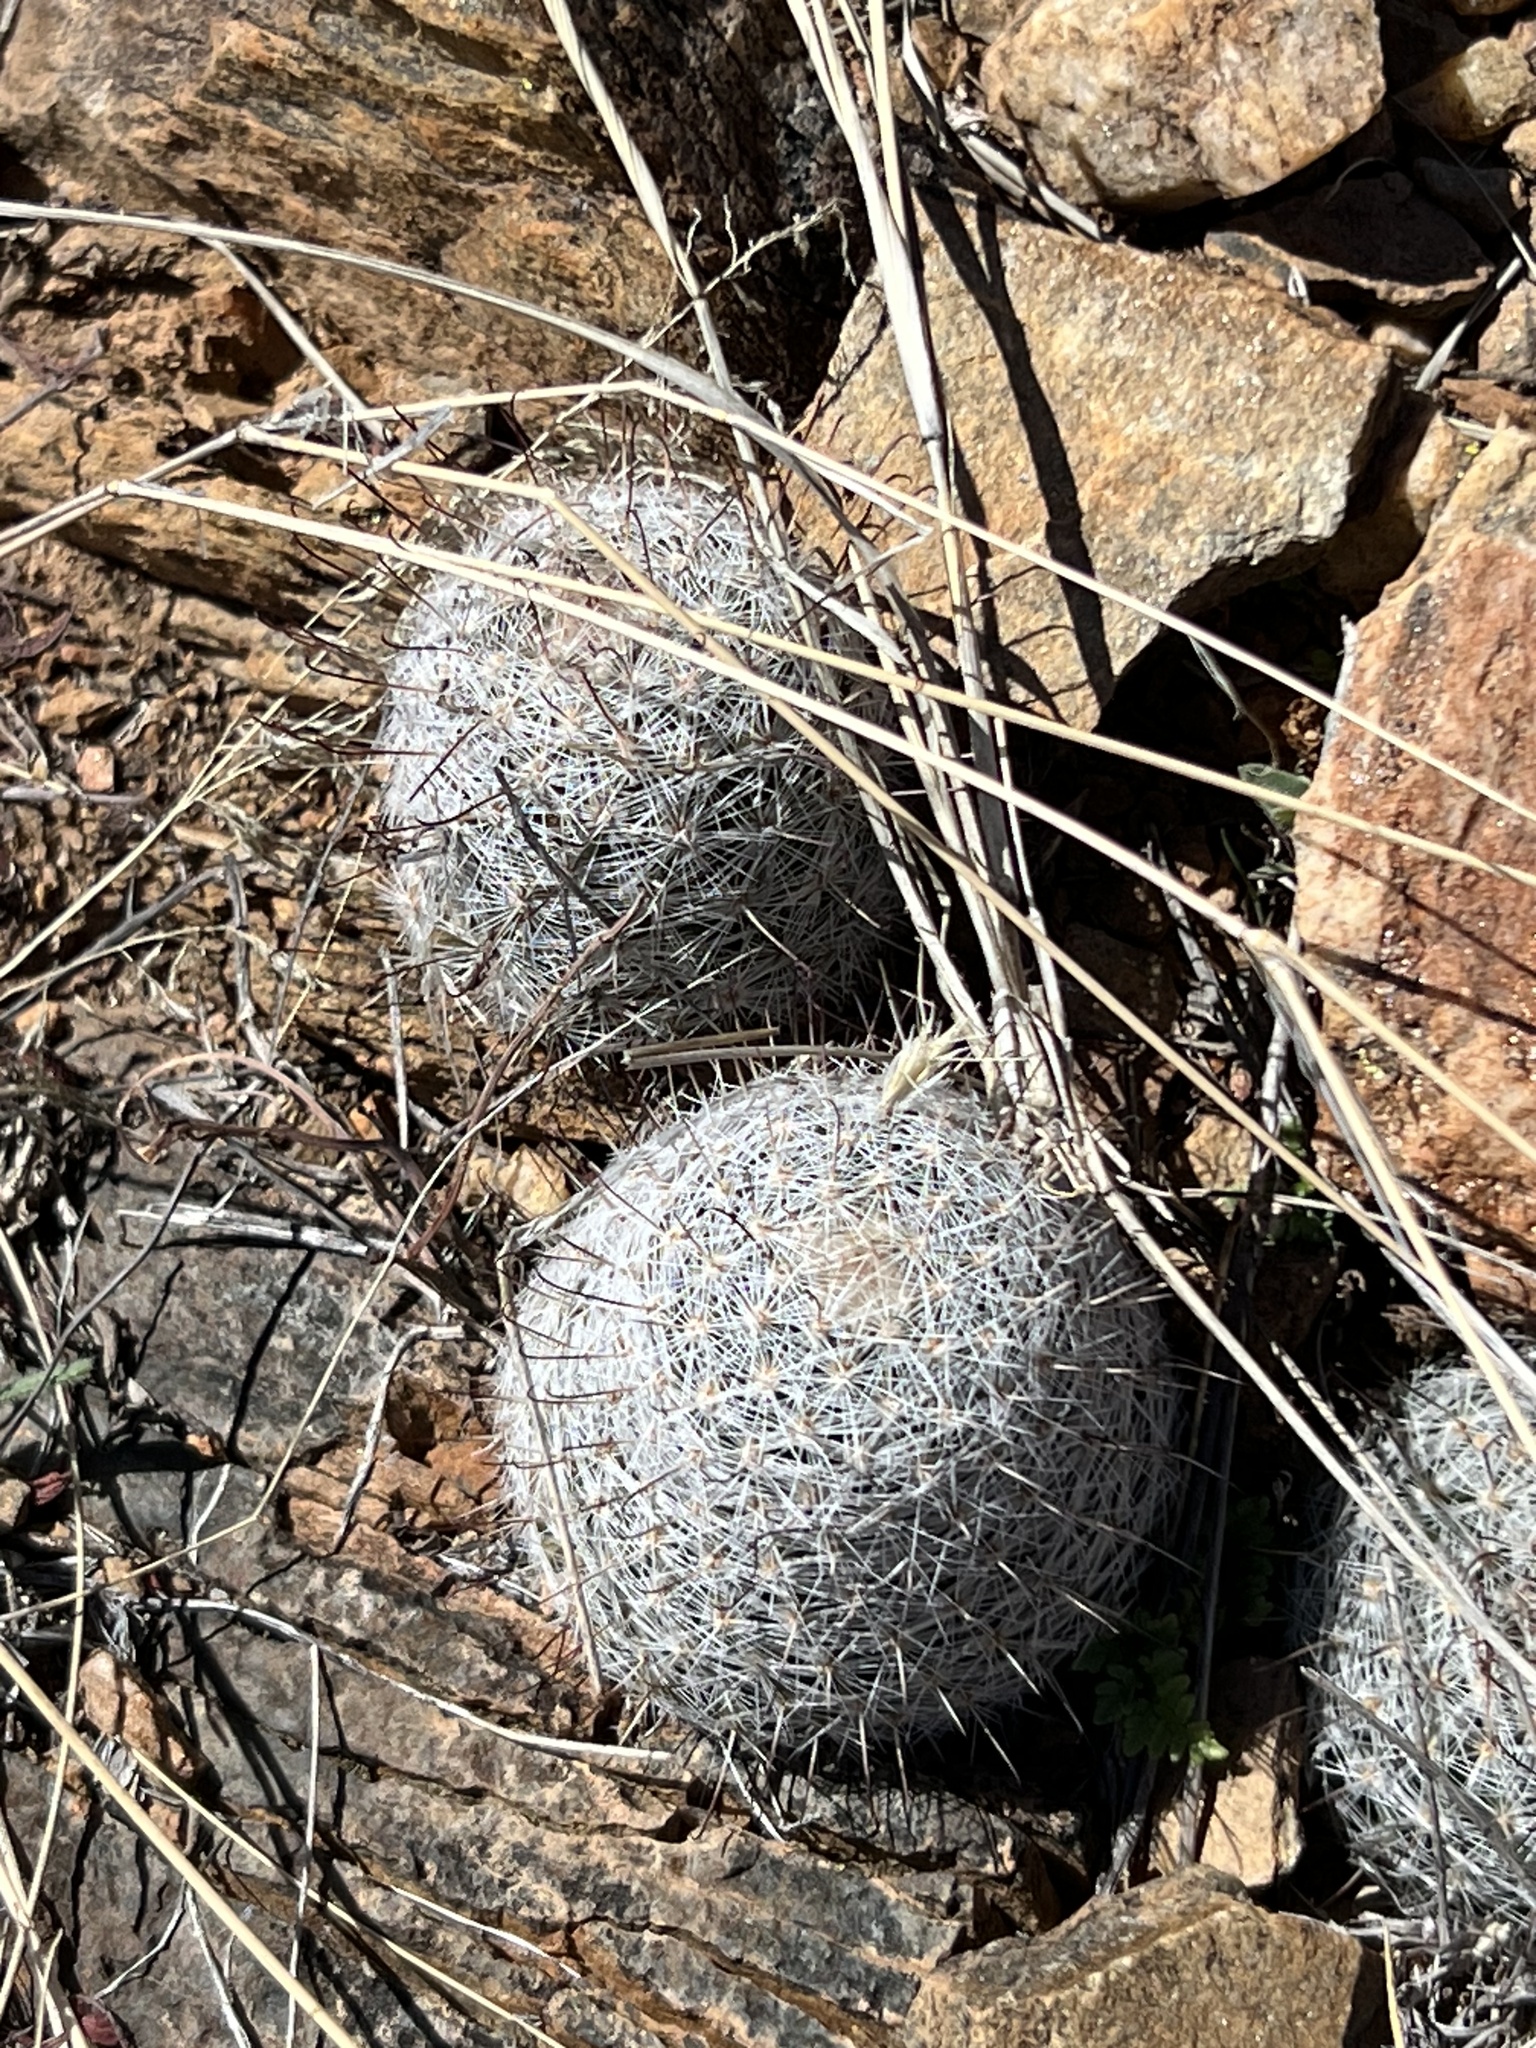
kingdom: Plantae
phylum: Tracheophyta
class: Magnoliopsida
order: Caryophyllales
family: Cactaceae
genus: Cochemiea
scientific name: Cochemiea grahamii
